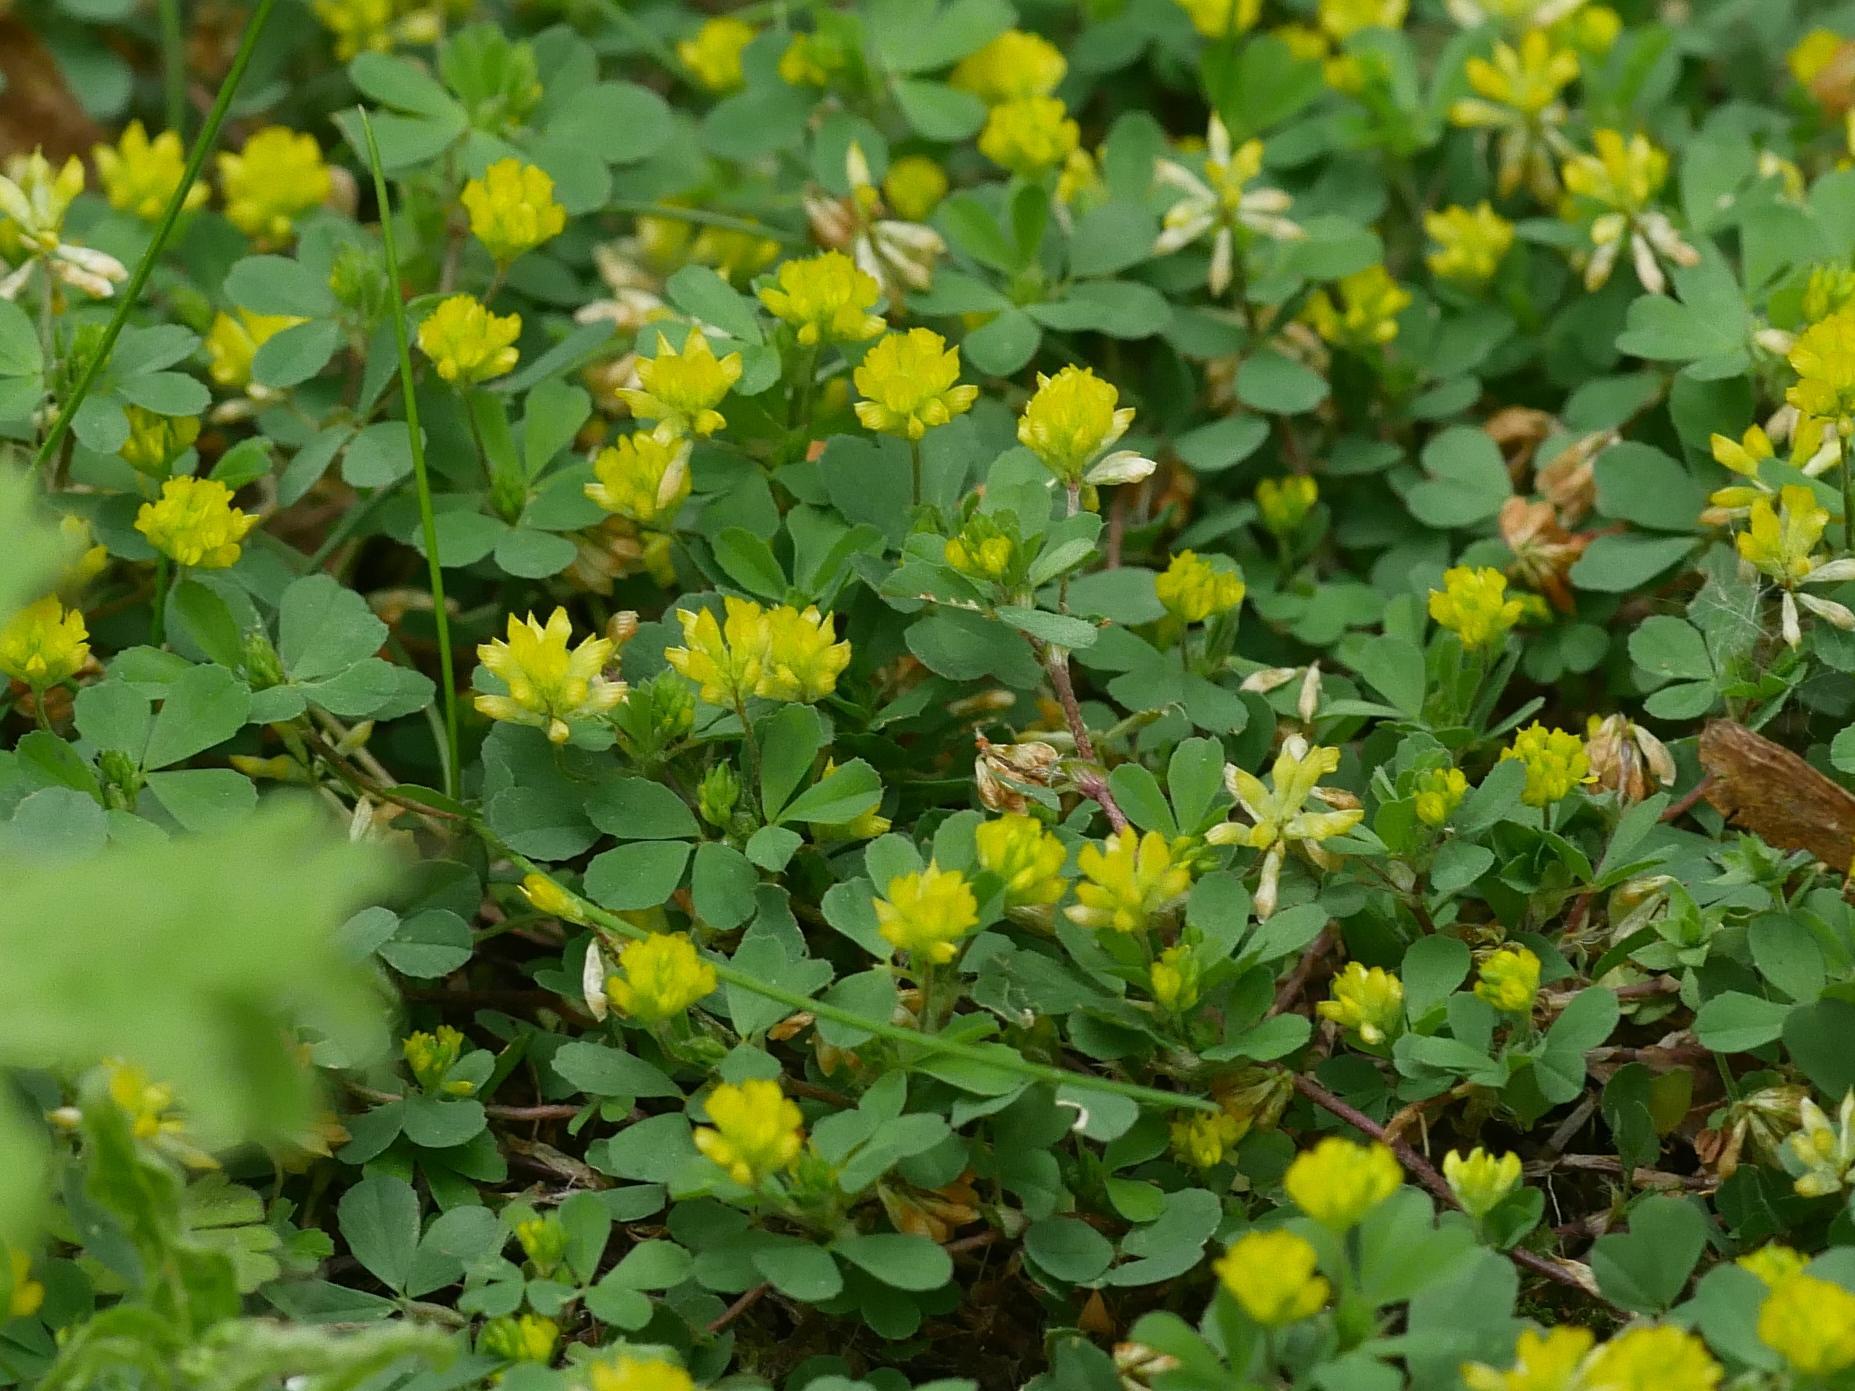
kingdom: Plantae
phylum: Tracheophyta
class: Magnoliopsida
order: Fabales
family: Fabaceae
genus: Trifolium
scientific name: Trifolium dubium
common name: Suckling clover
